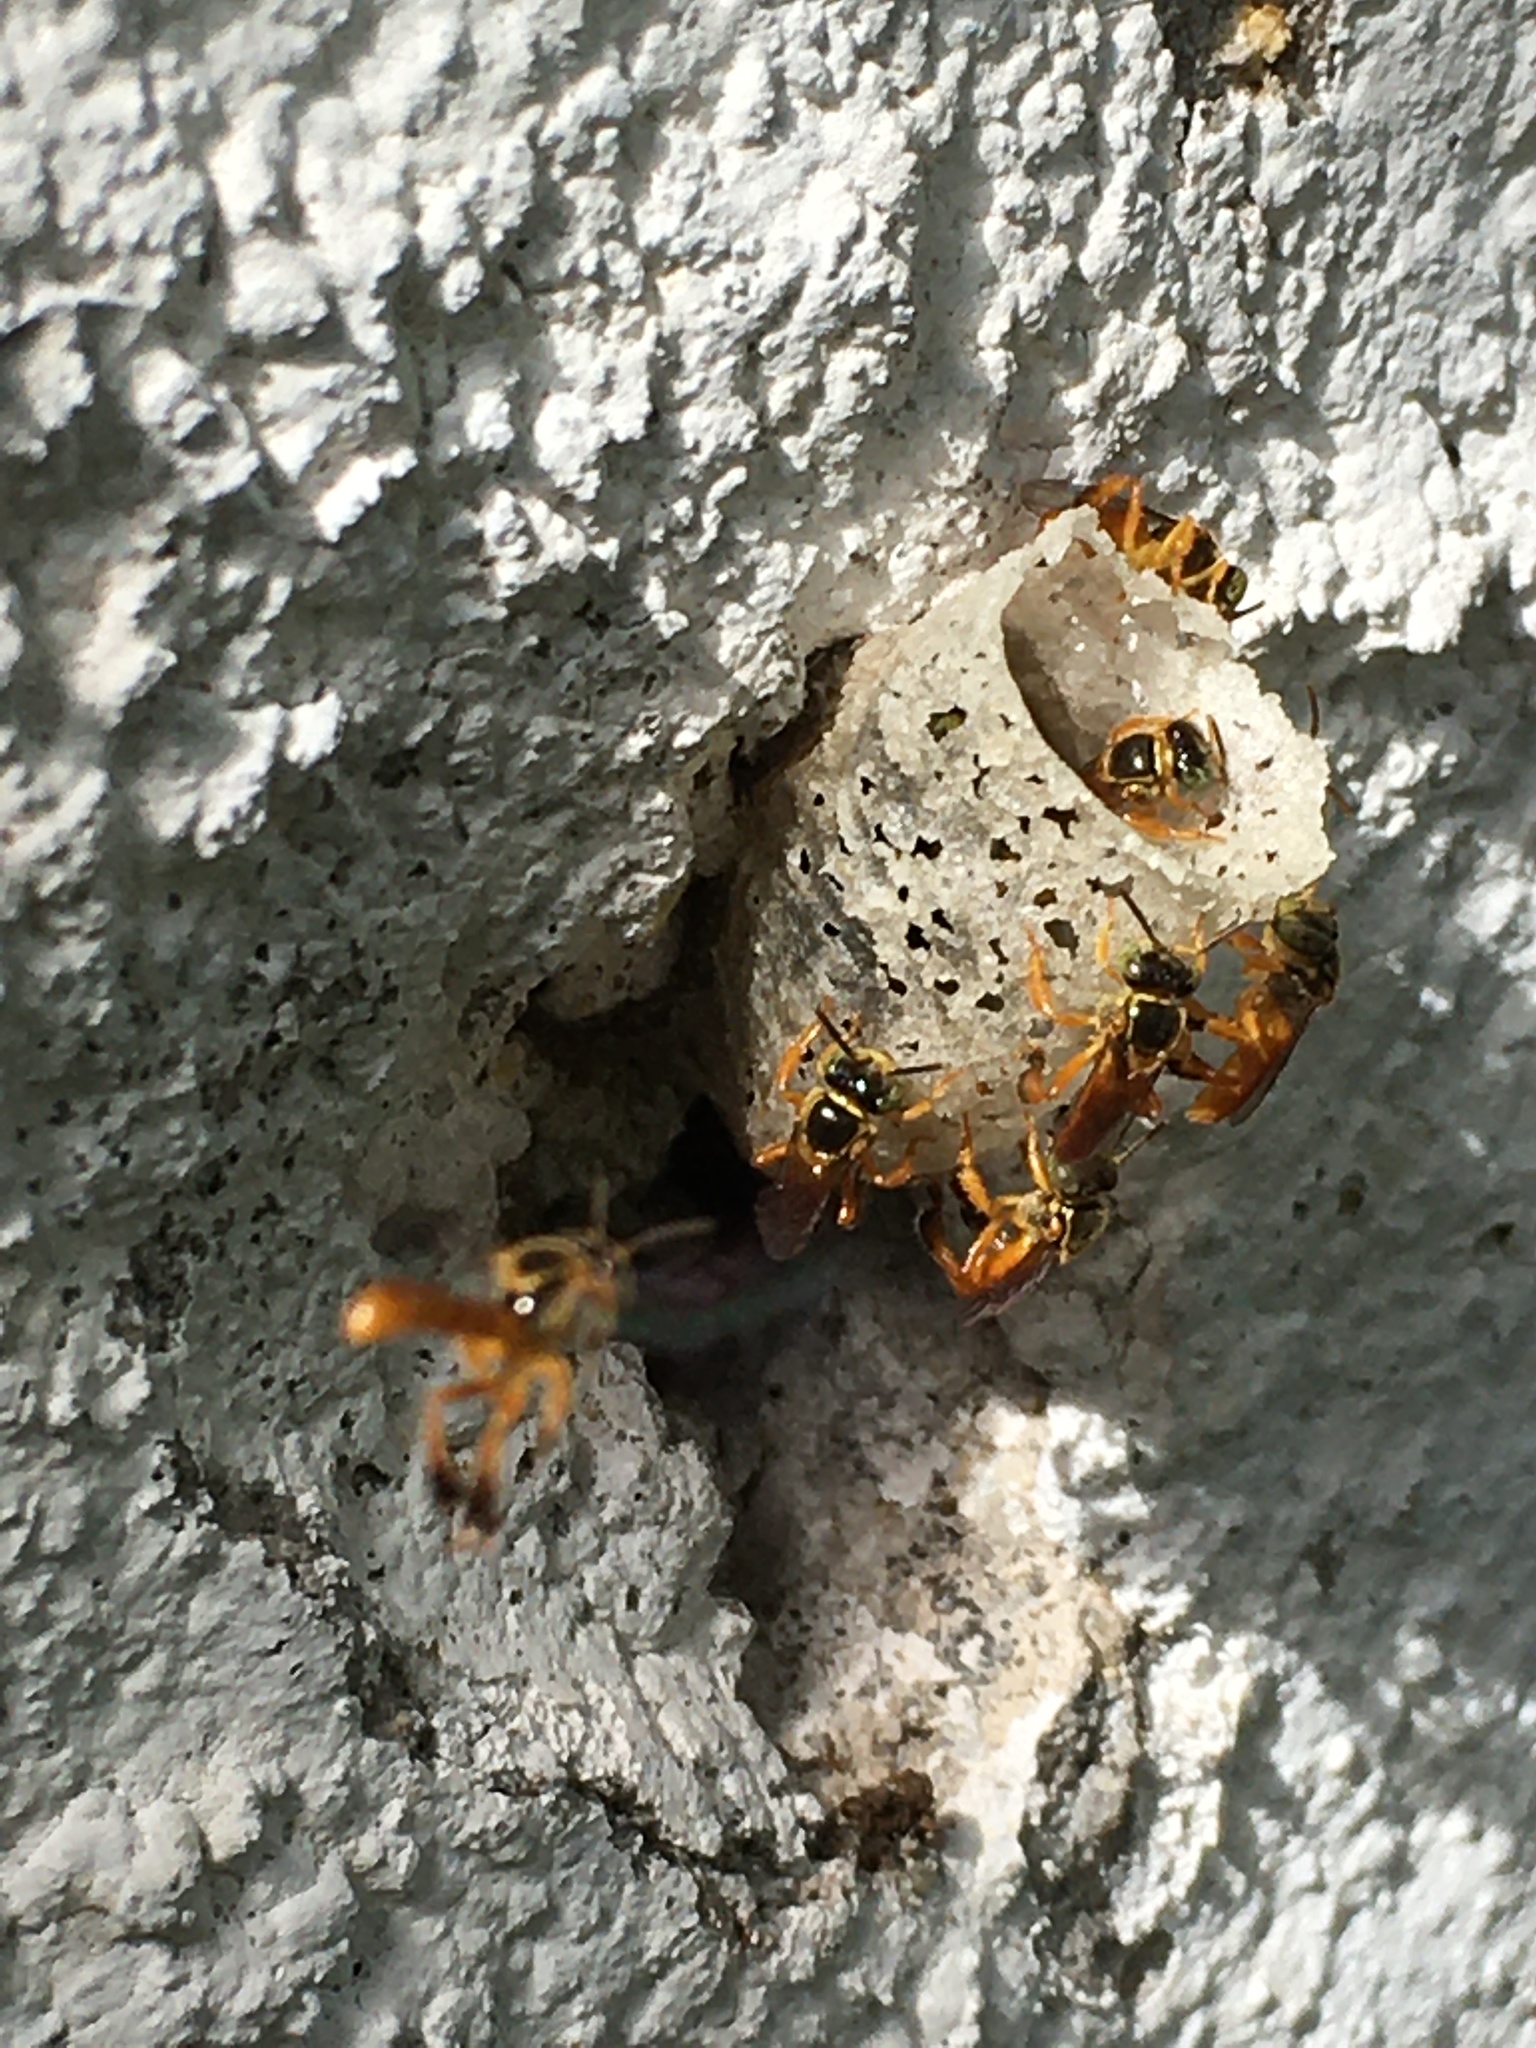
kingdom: Animalia
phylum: Arthropoda
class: Insecta
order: Hymenoptera
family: Apidae
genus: Tetragonisca
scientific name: Tetragonisca angustula
